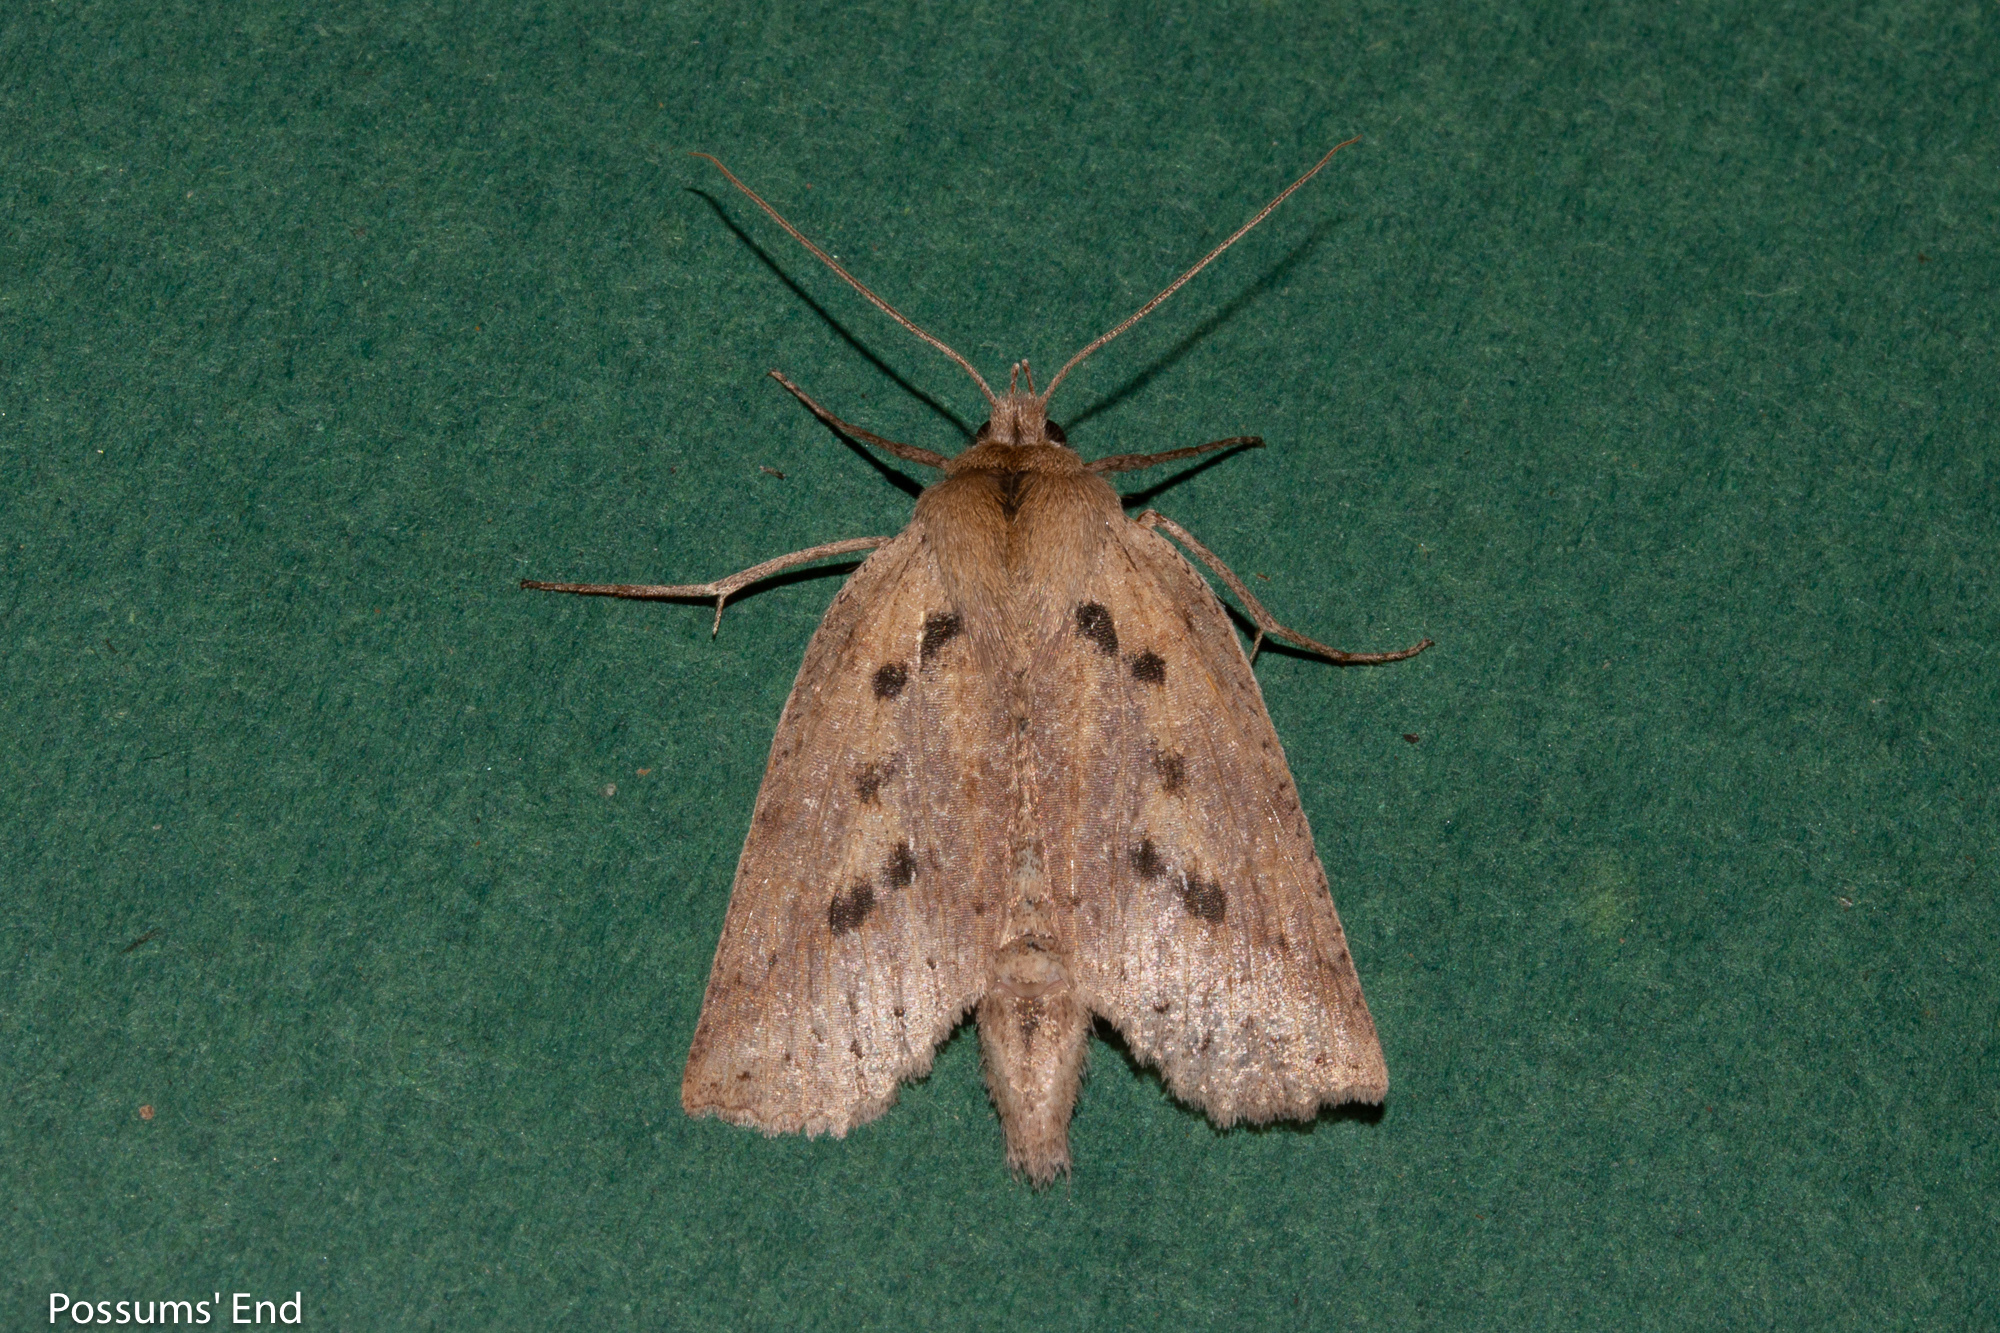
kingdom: Animalia
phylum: Arthropoda
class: Insecta
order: Lepidoptera
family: Geometridae
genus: Declana
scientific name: Declana leptomera
